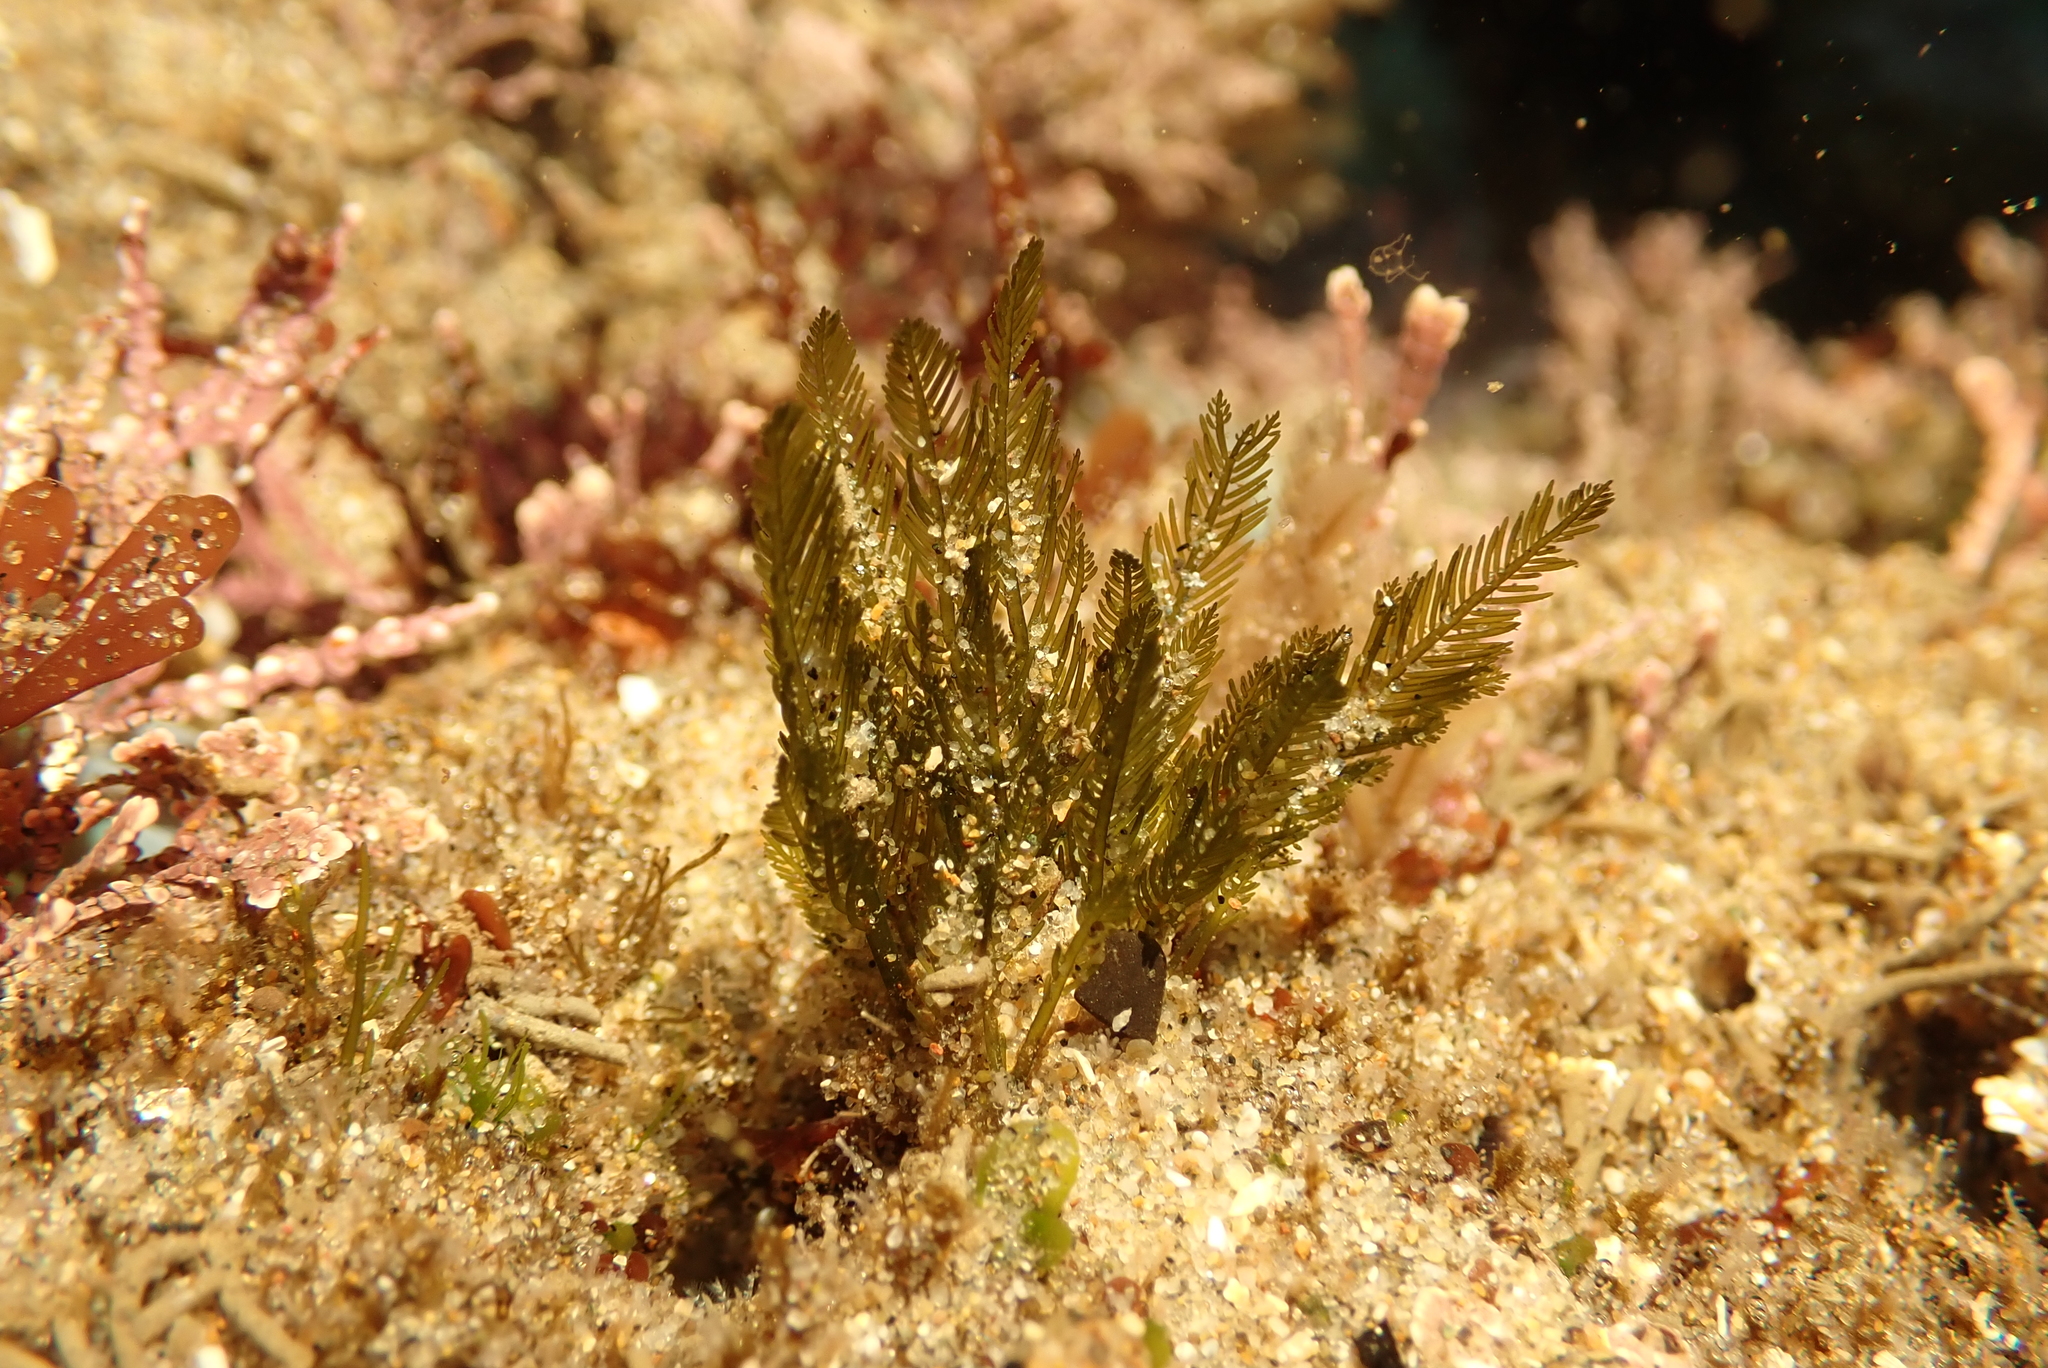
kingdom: Plantae
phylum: Chlorophyta
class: Ulvophyceae
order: Bryopsidales
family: Bryopsidaceae
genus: Bryopsis
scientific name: Bryopsis corticulans
